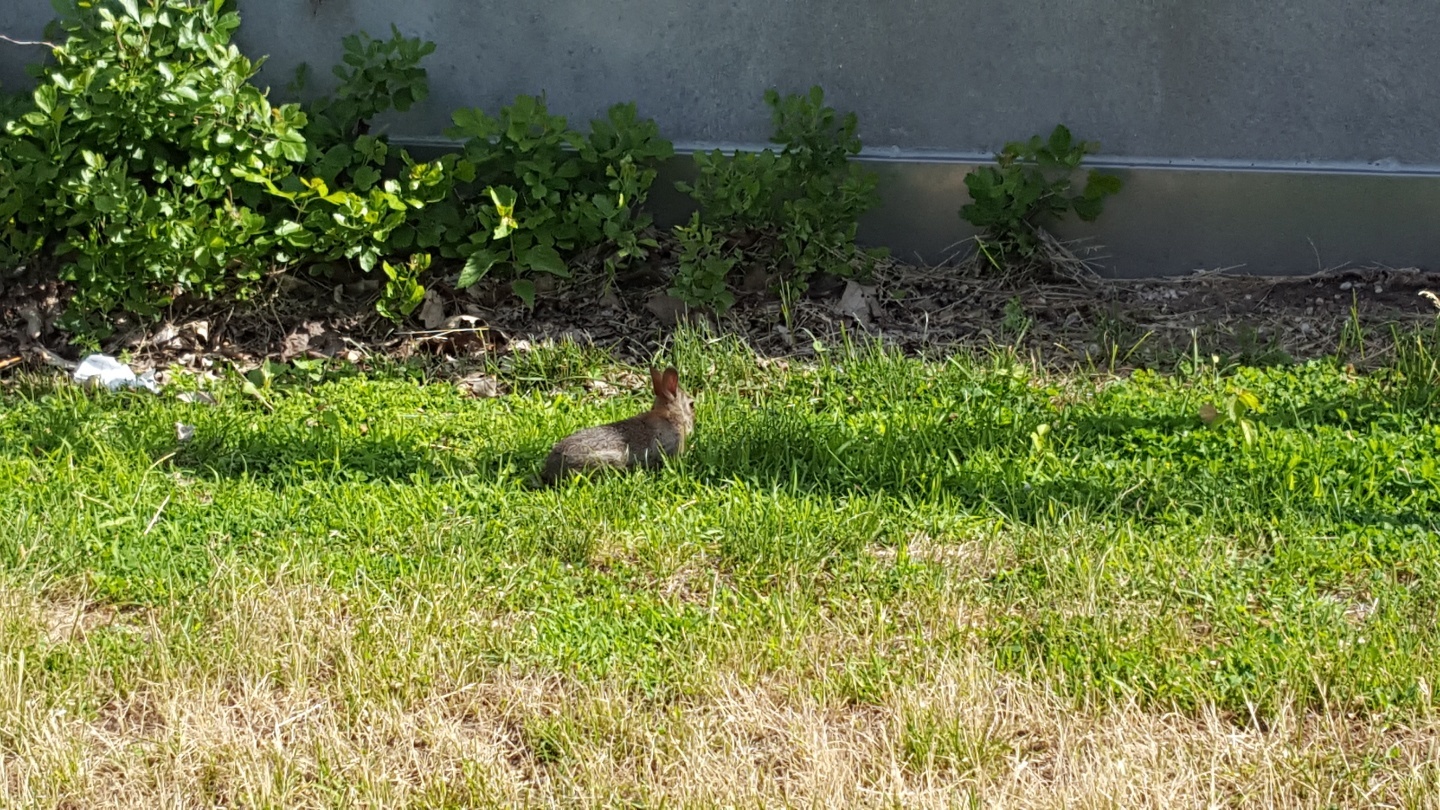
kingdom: Animalia
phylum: Chordata
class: Mammalia
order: Lagomorpha
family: Leporidae
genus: Sylvilagus
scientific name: Sylvilagus floridanus
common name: Eastern cottontail
